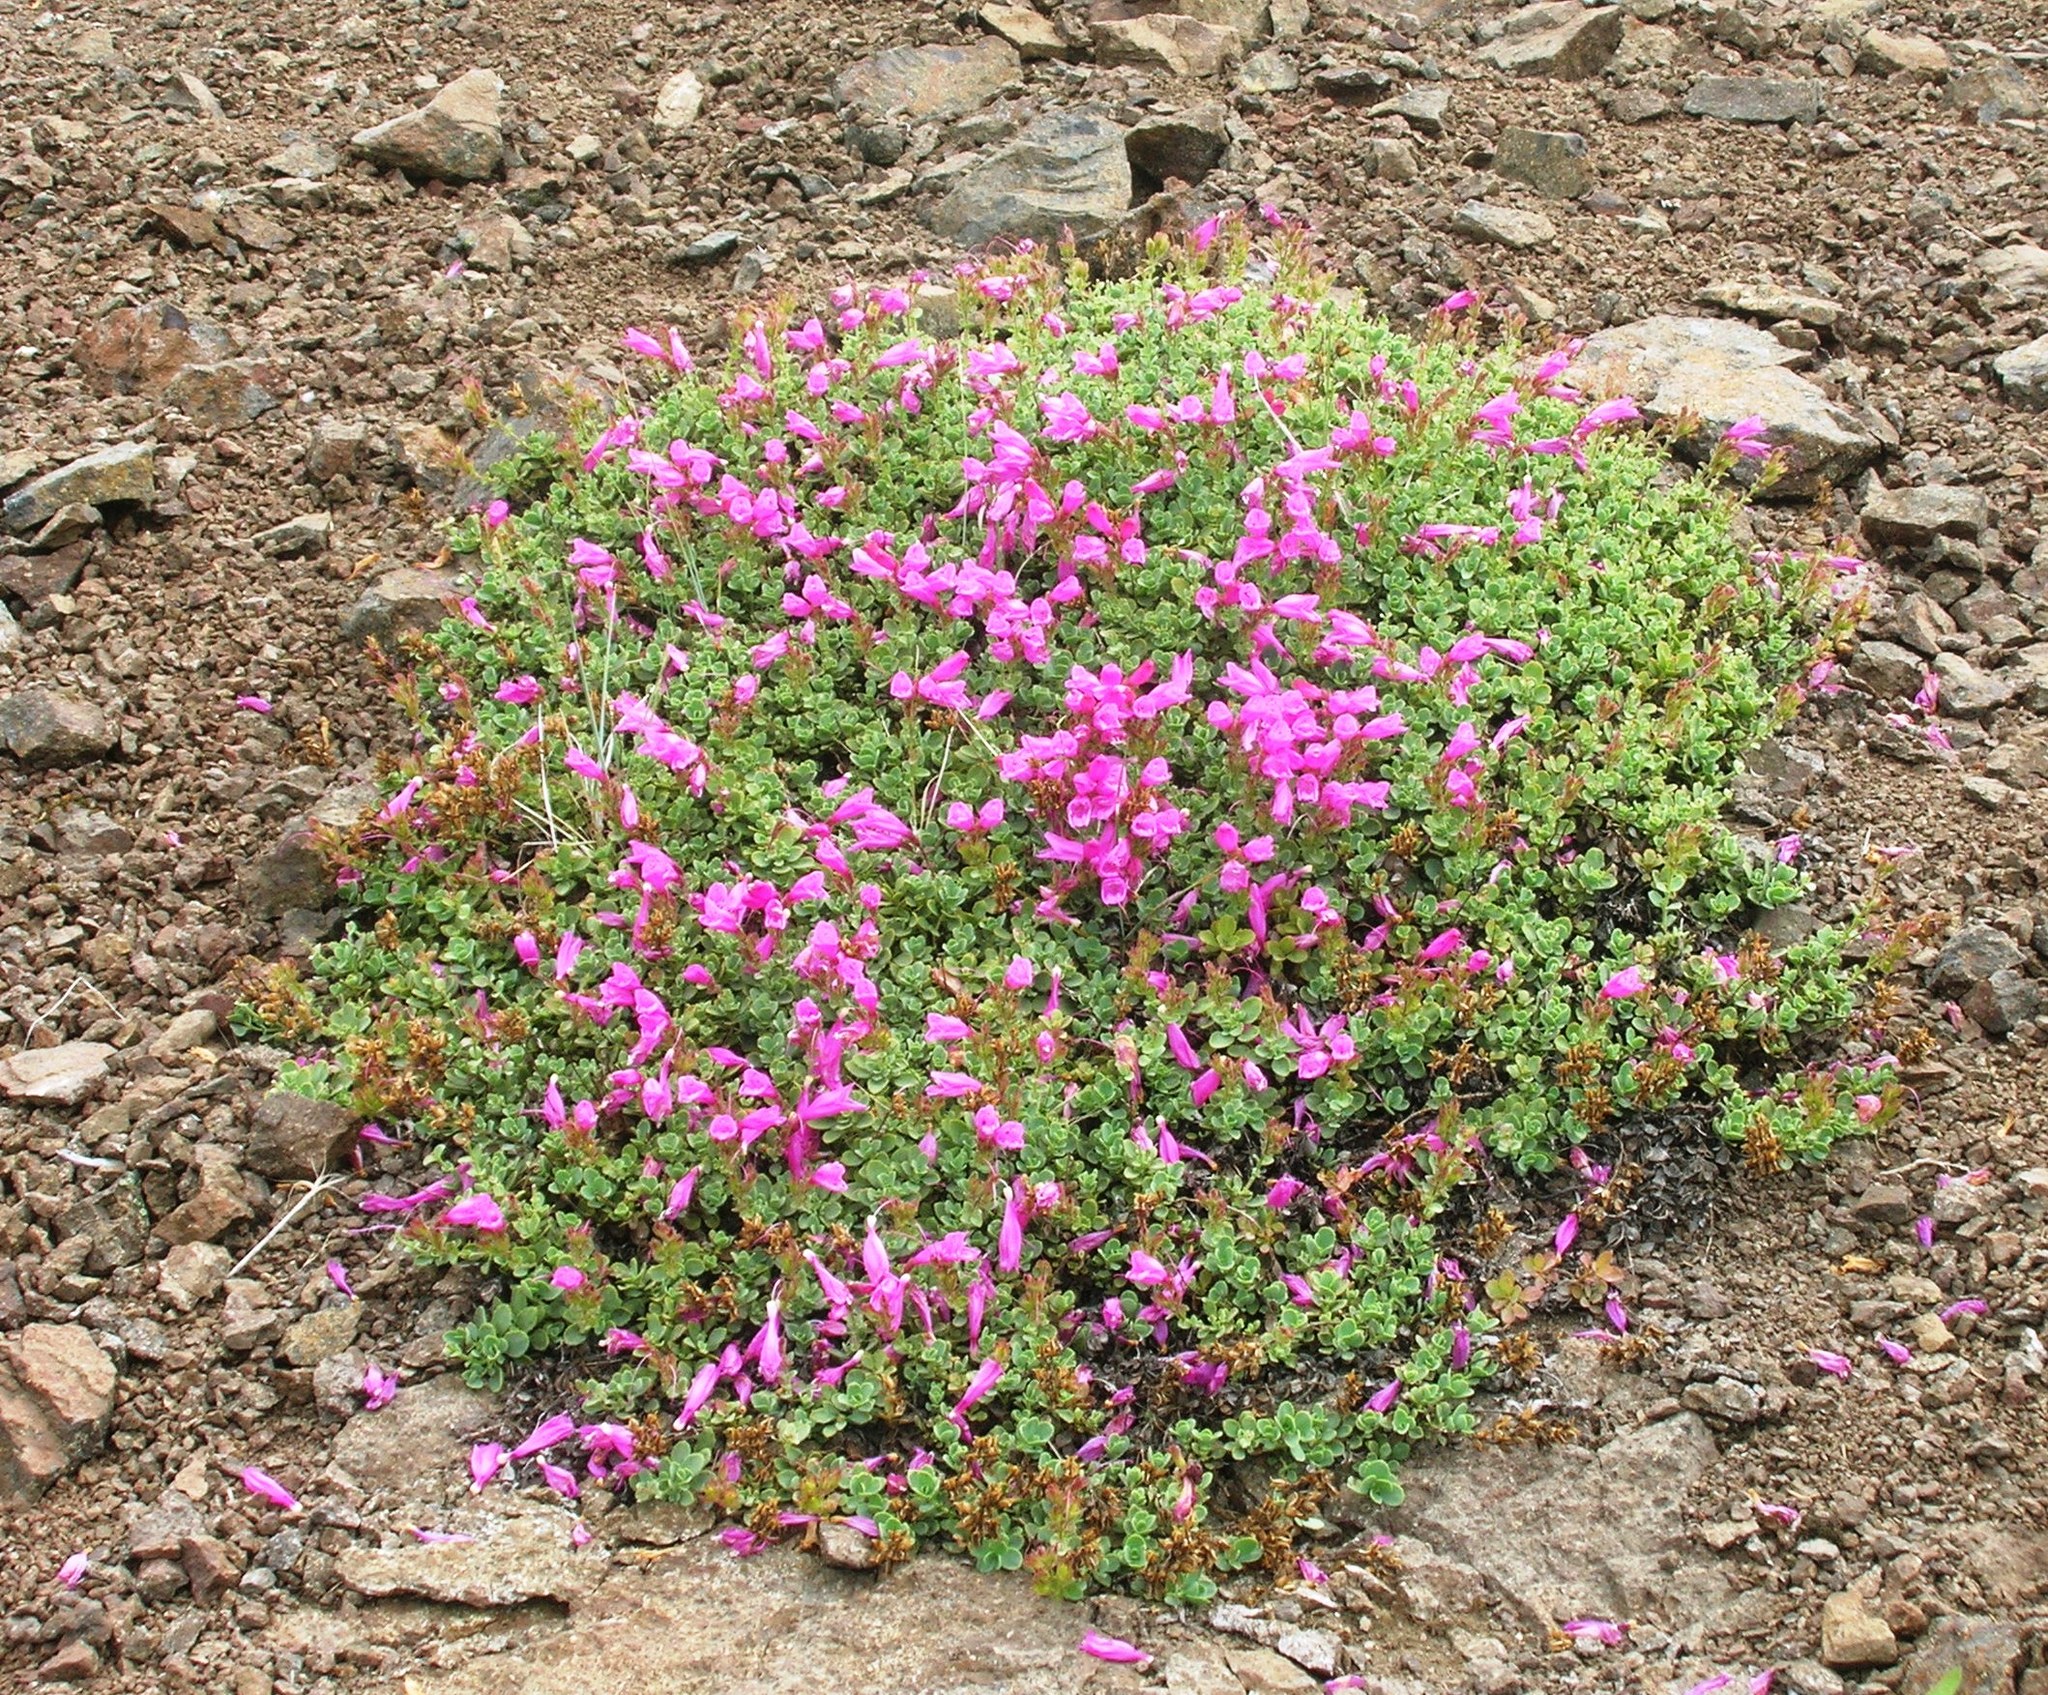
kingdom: Plantae
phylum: Tracheophyta
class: Magnoliopsida
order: Lamiales
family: Plantaginaceae
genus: Penstemon
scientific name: Penstemon rupicola
